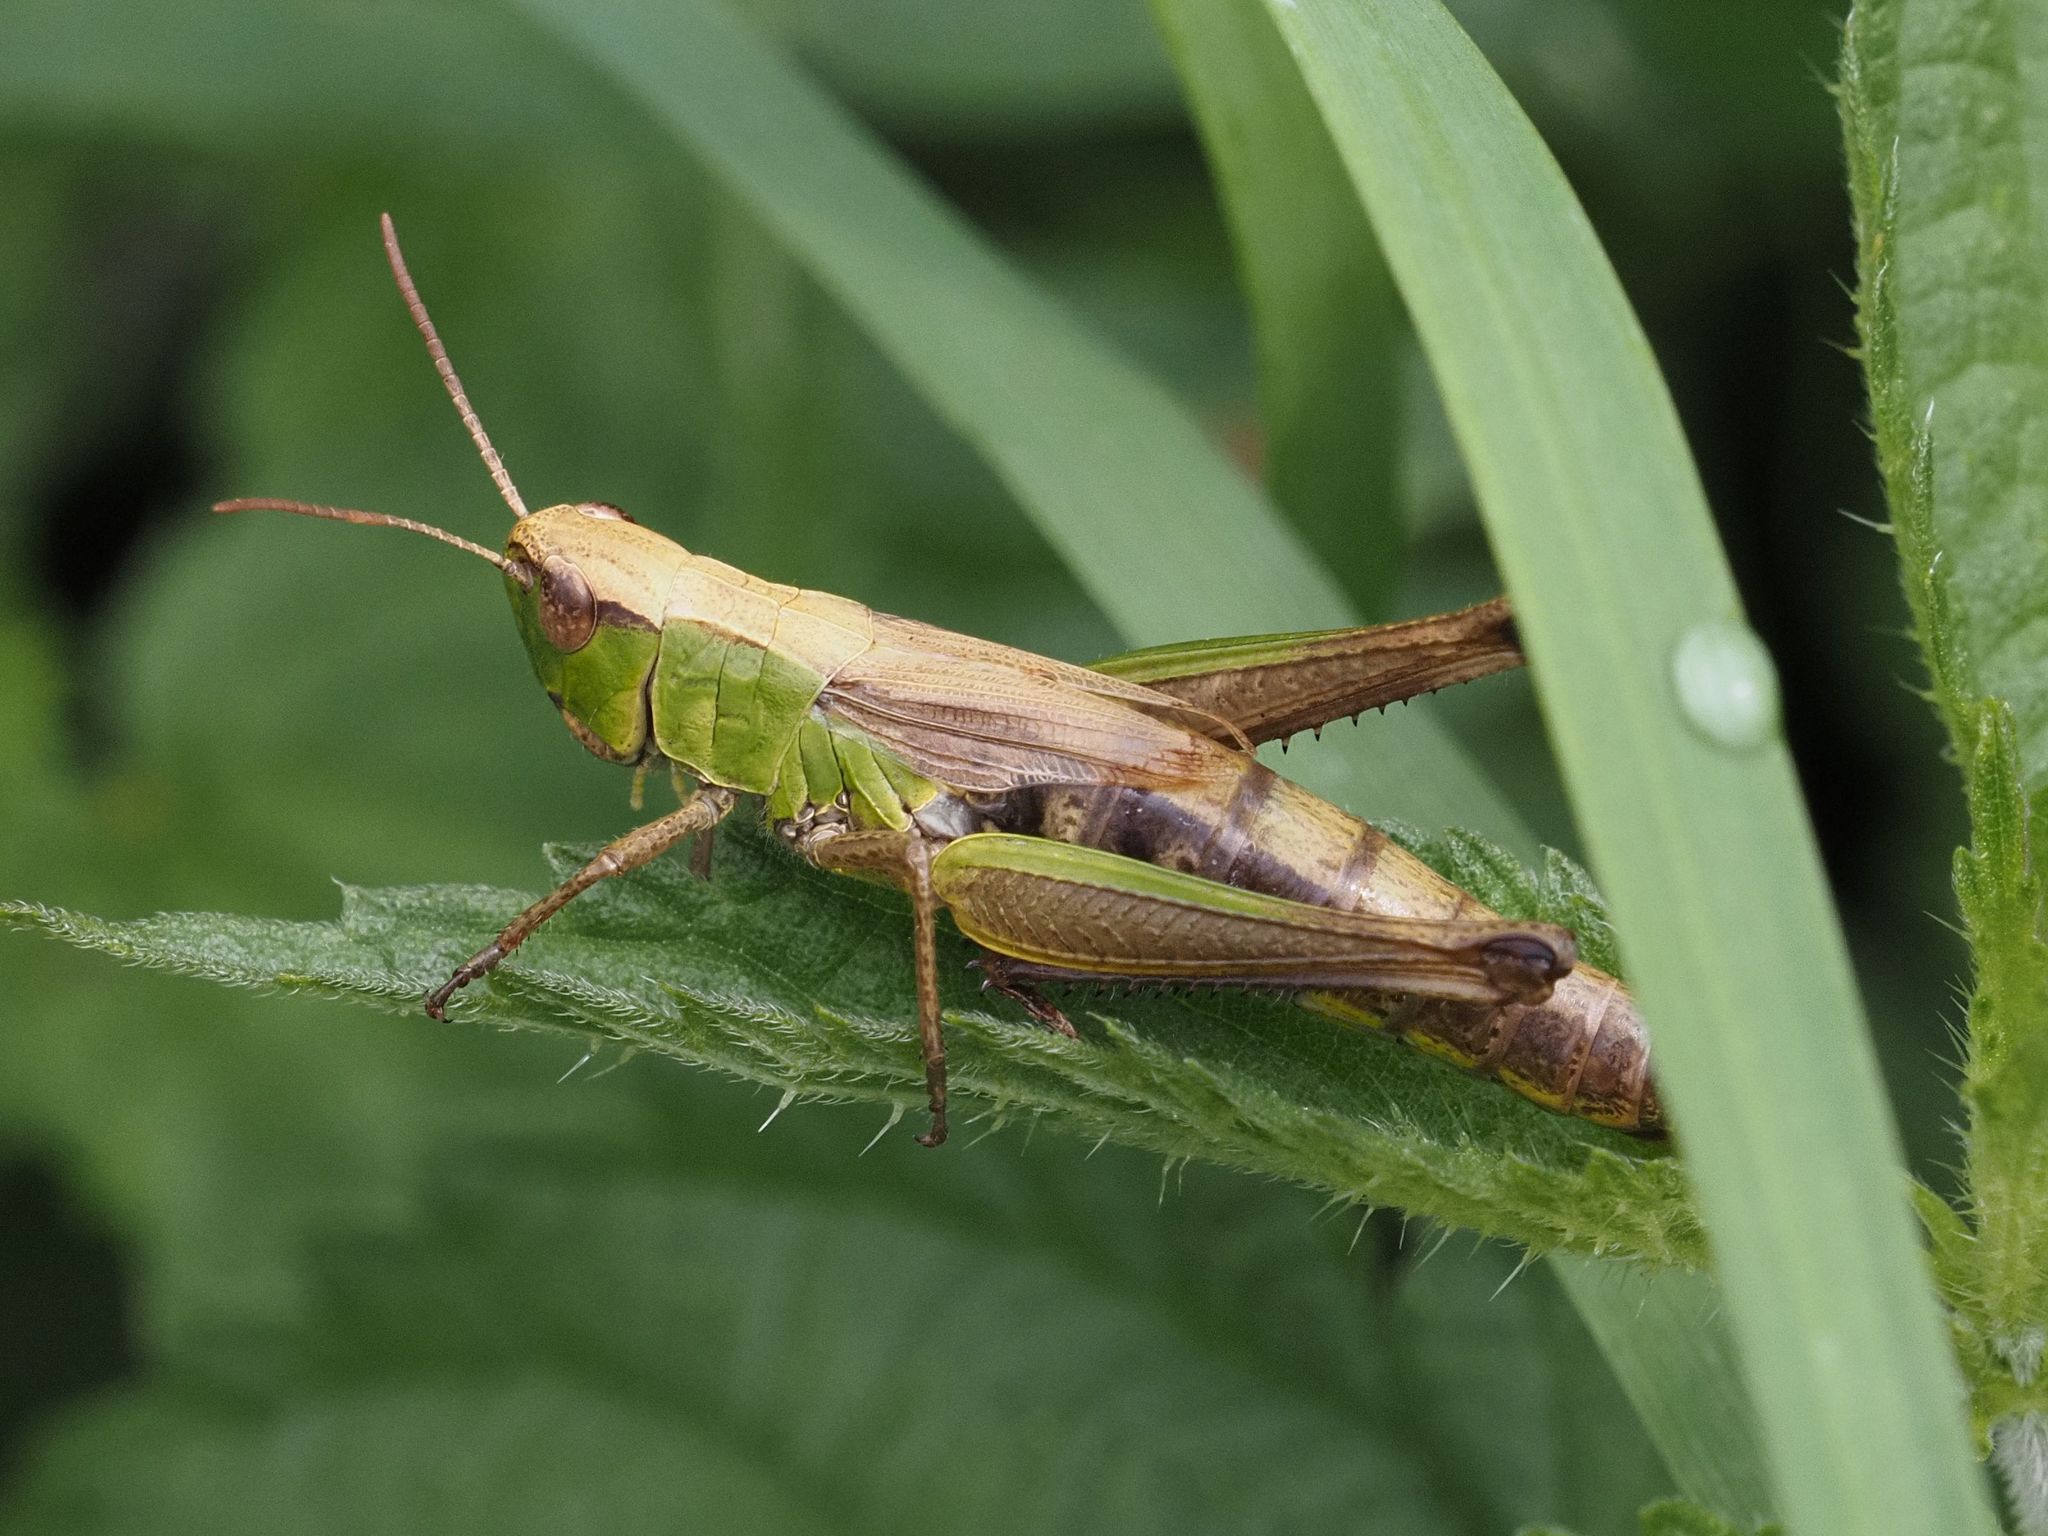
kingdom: Animalia
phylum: Arthropoda
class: Insecta
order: Orthoptera
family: Acrididae
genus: Pseudochorthippus
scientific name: Pseudochorthippus parallelus
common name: Meadow grasshopper
